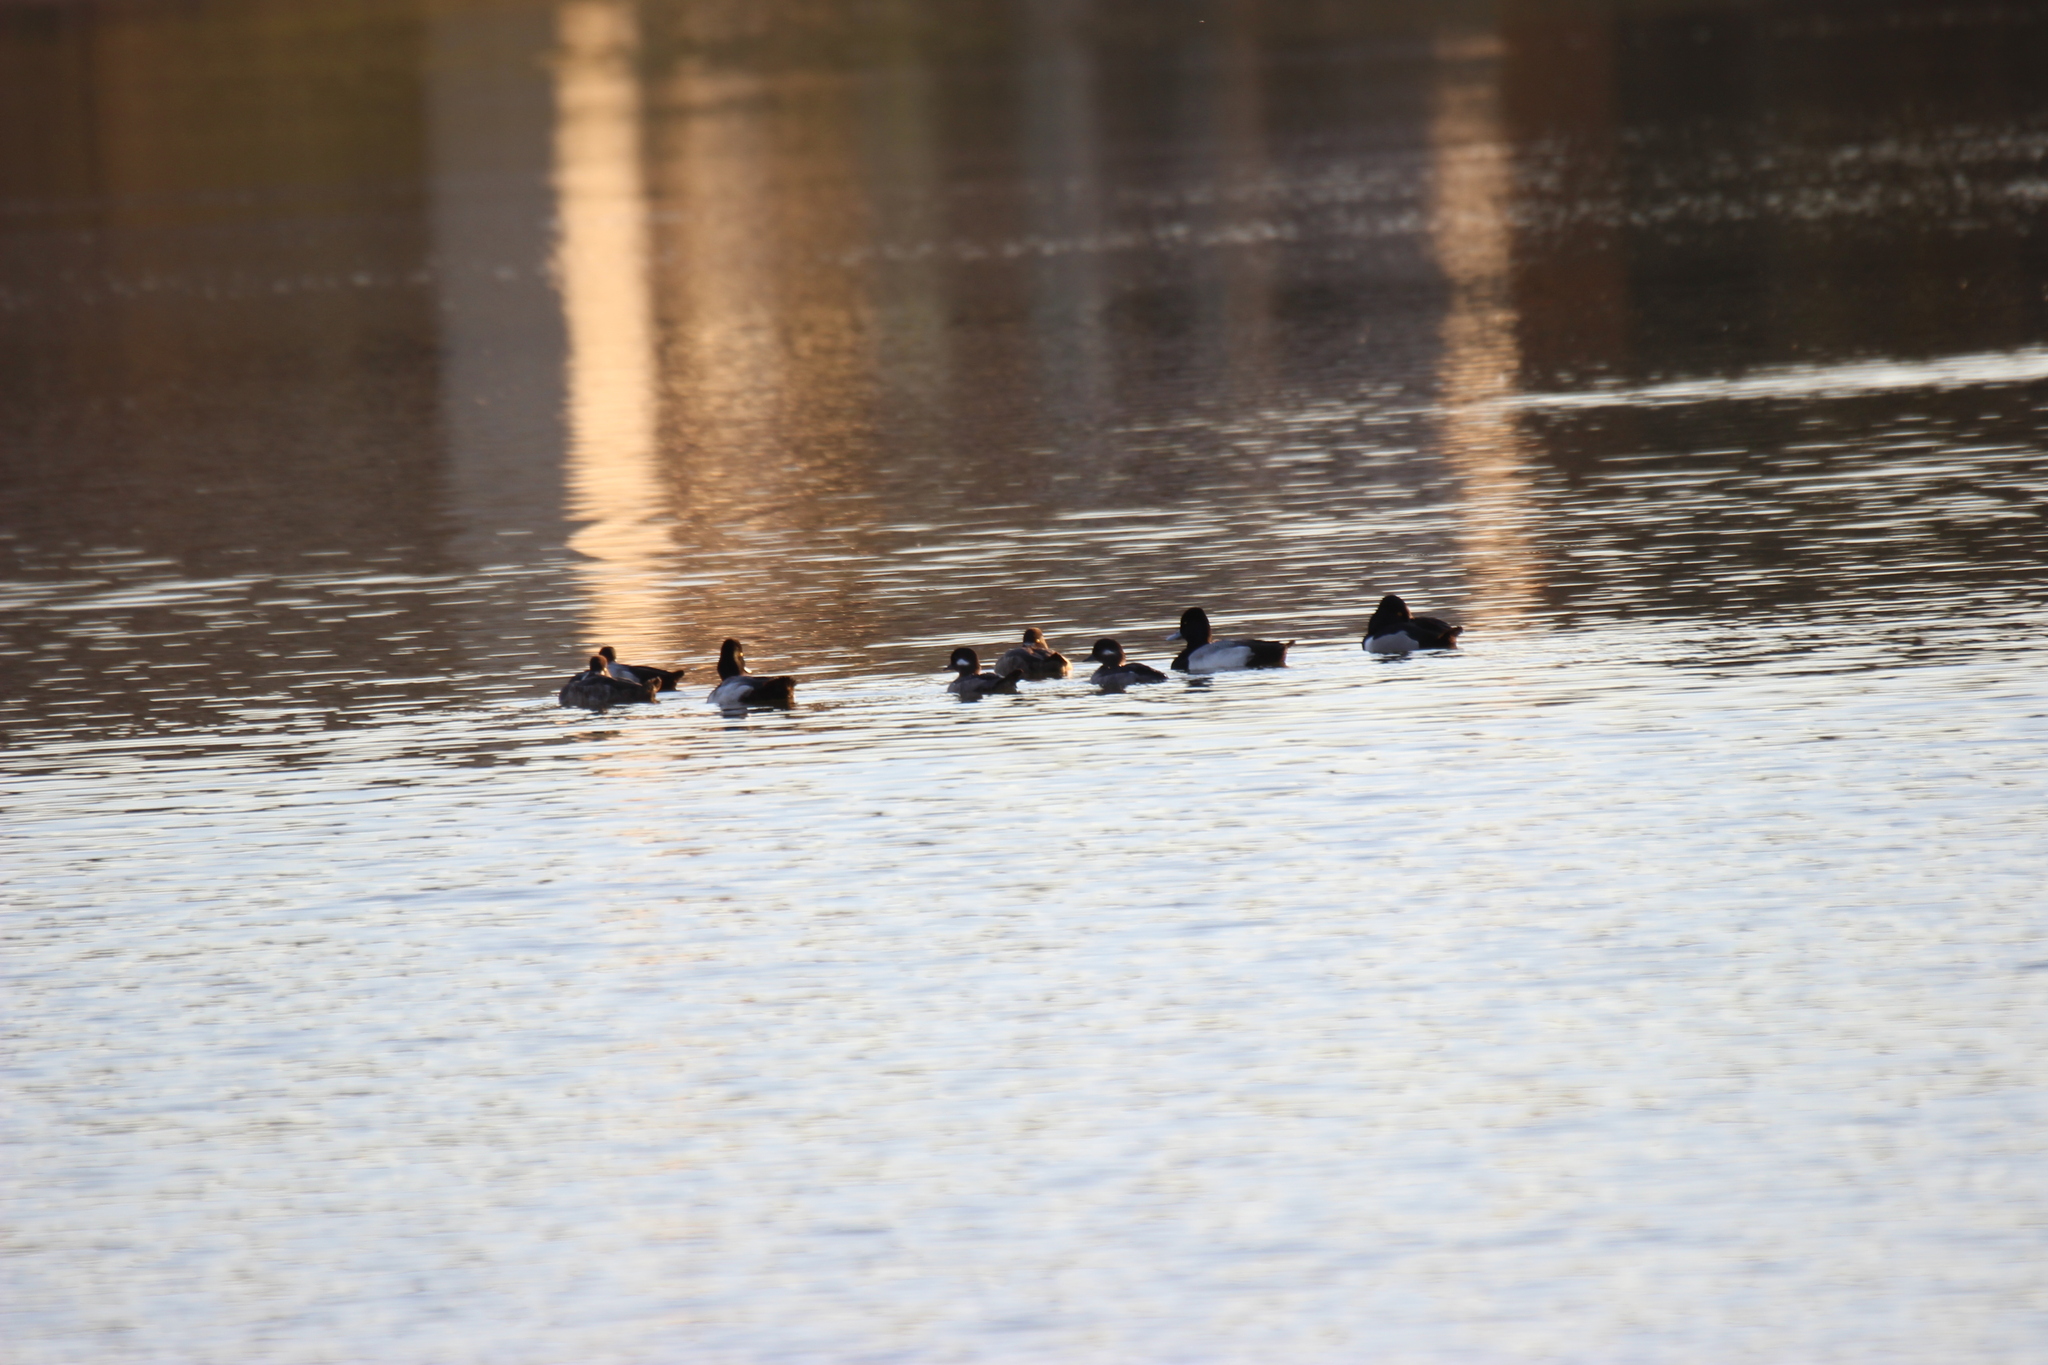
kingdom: Animalia
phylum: Chordata
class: Aves
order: Anseriformes
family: Anatidae
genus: Bucephala
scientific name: Bucephala albeola
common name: Bufflehead
